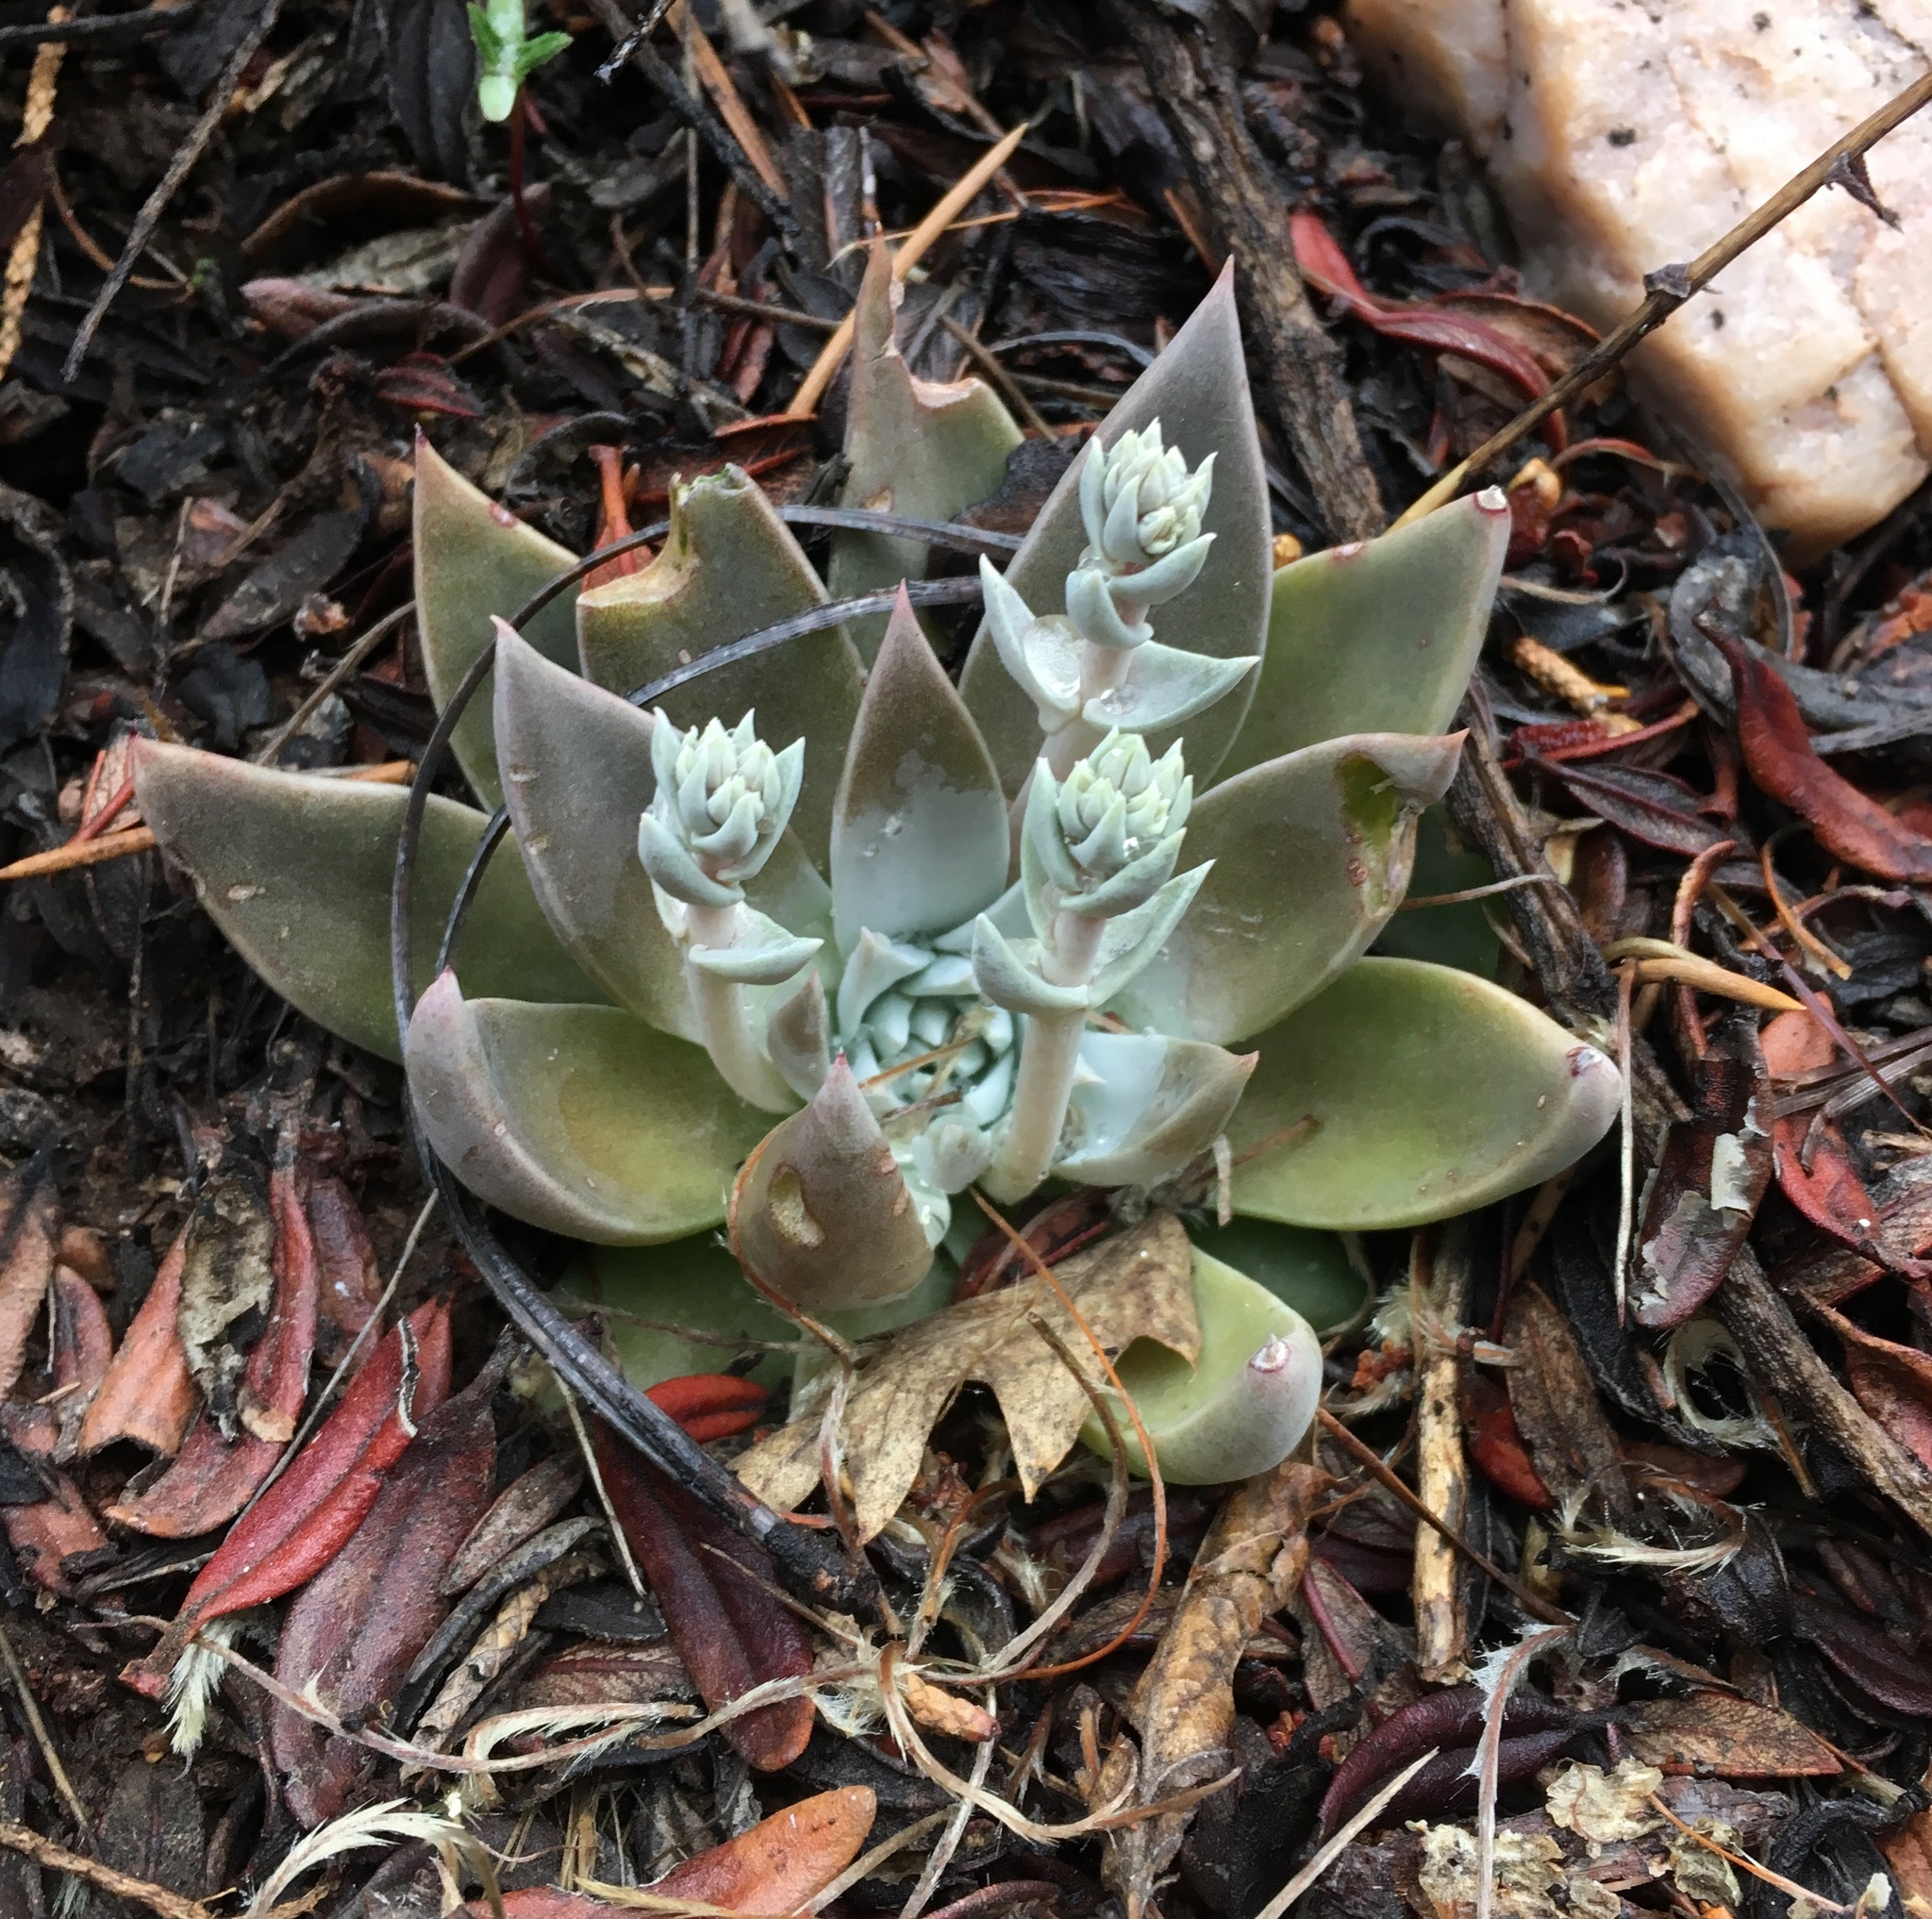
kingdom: Plantae
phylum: Tracheophyta
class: Magnoliopsida
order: Saxifragales
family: Crassulaceae
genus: Dudleya
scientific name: Dudleya abramsii
